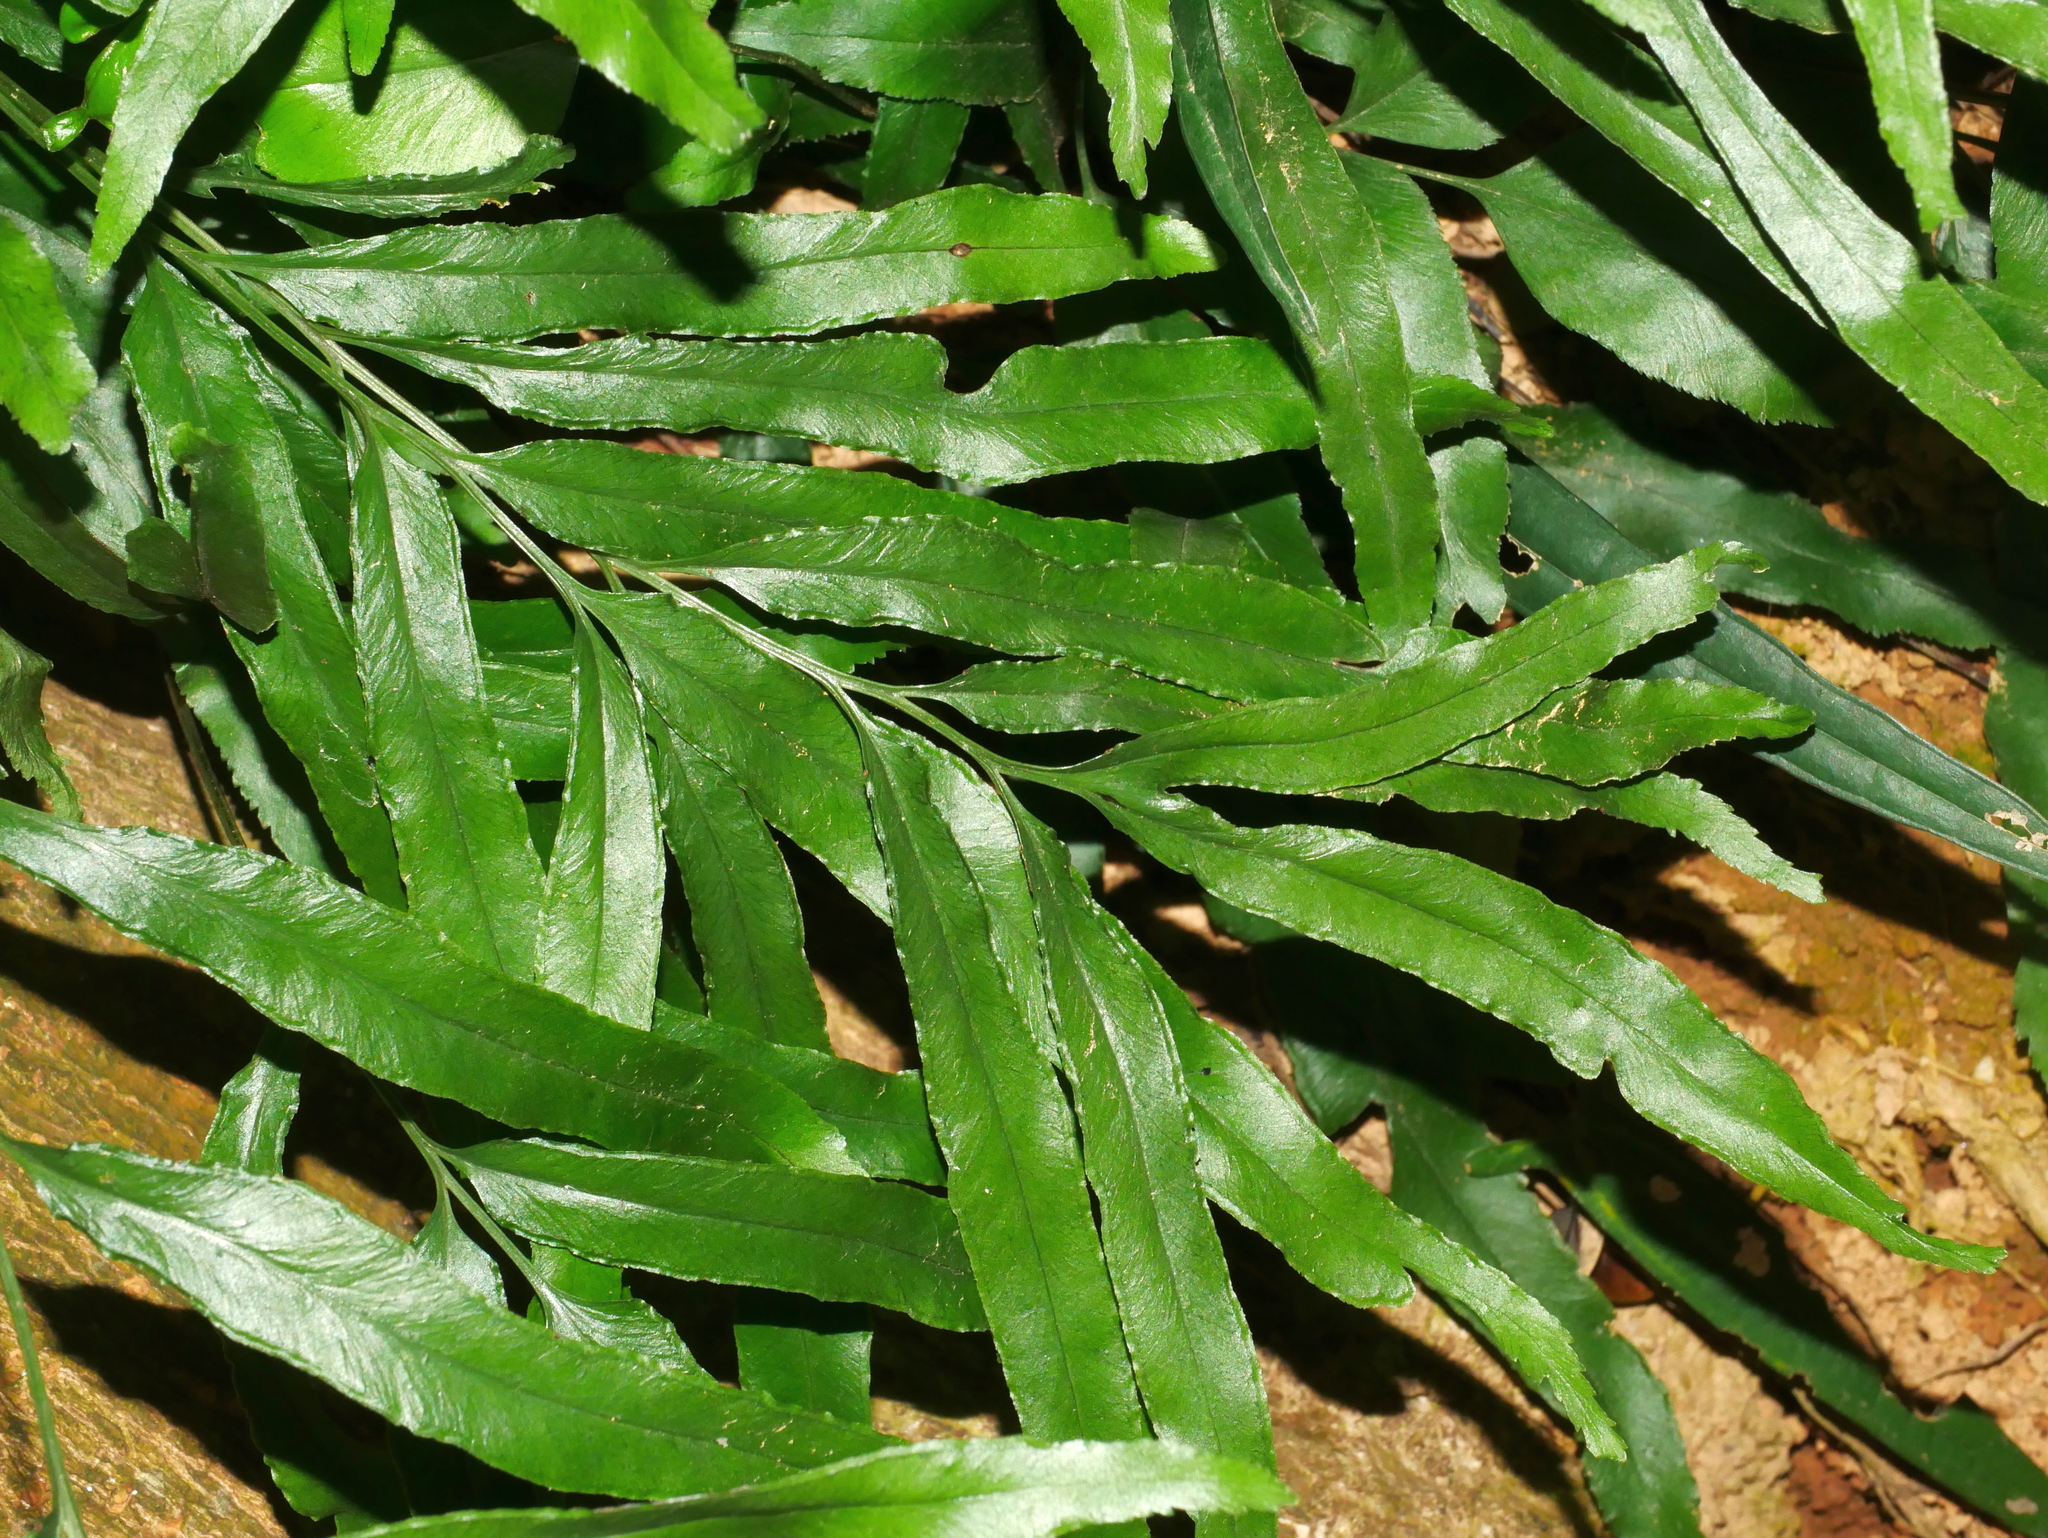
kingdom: Plantae
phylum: Tracheophyta
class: Polypodiopsida
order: Polypodiales
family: Lindsaeaceae
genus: Lindsaea
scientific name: Lindsaea ensifolia
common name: Graceful necklace fern
